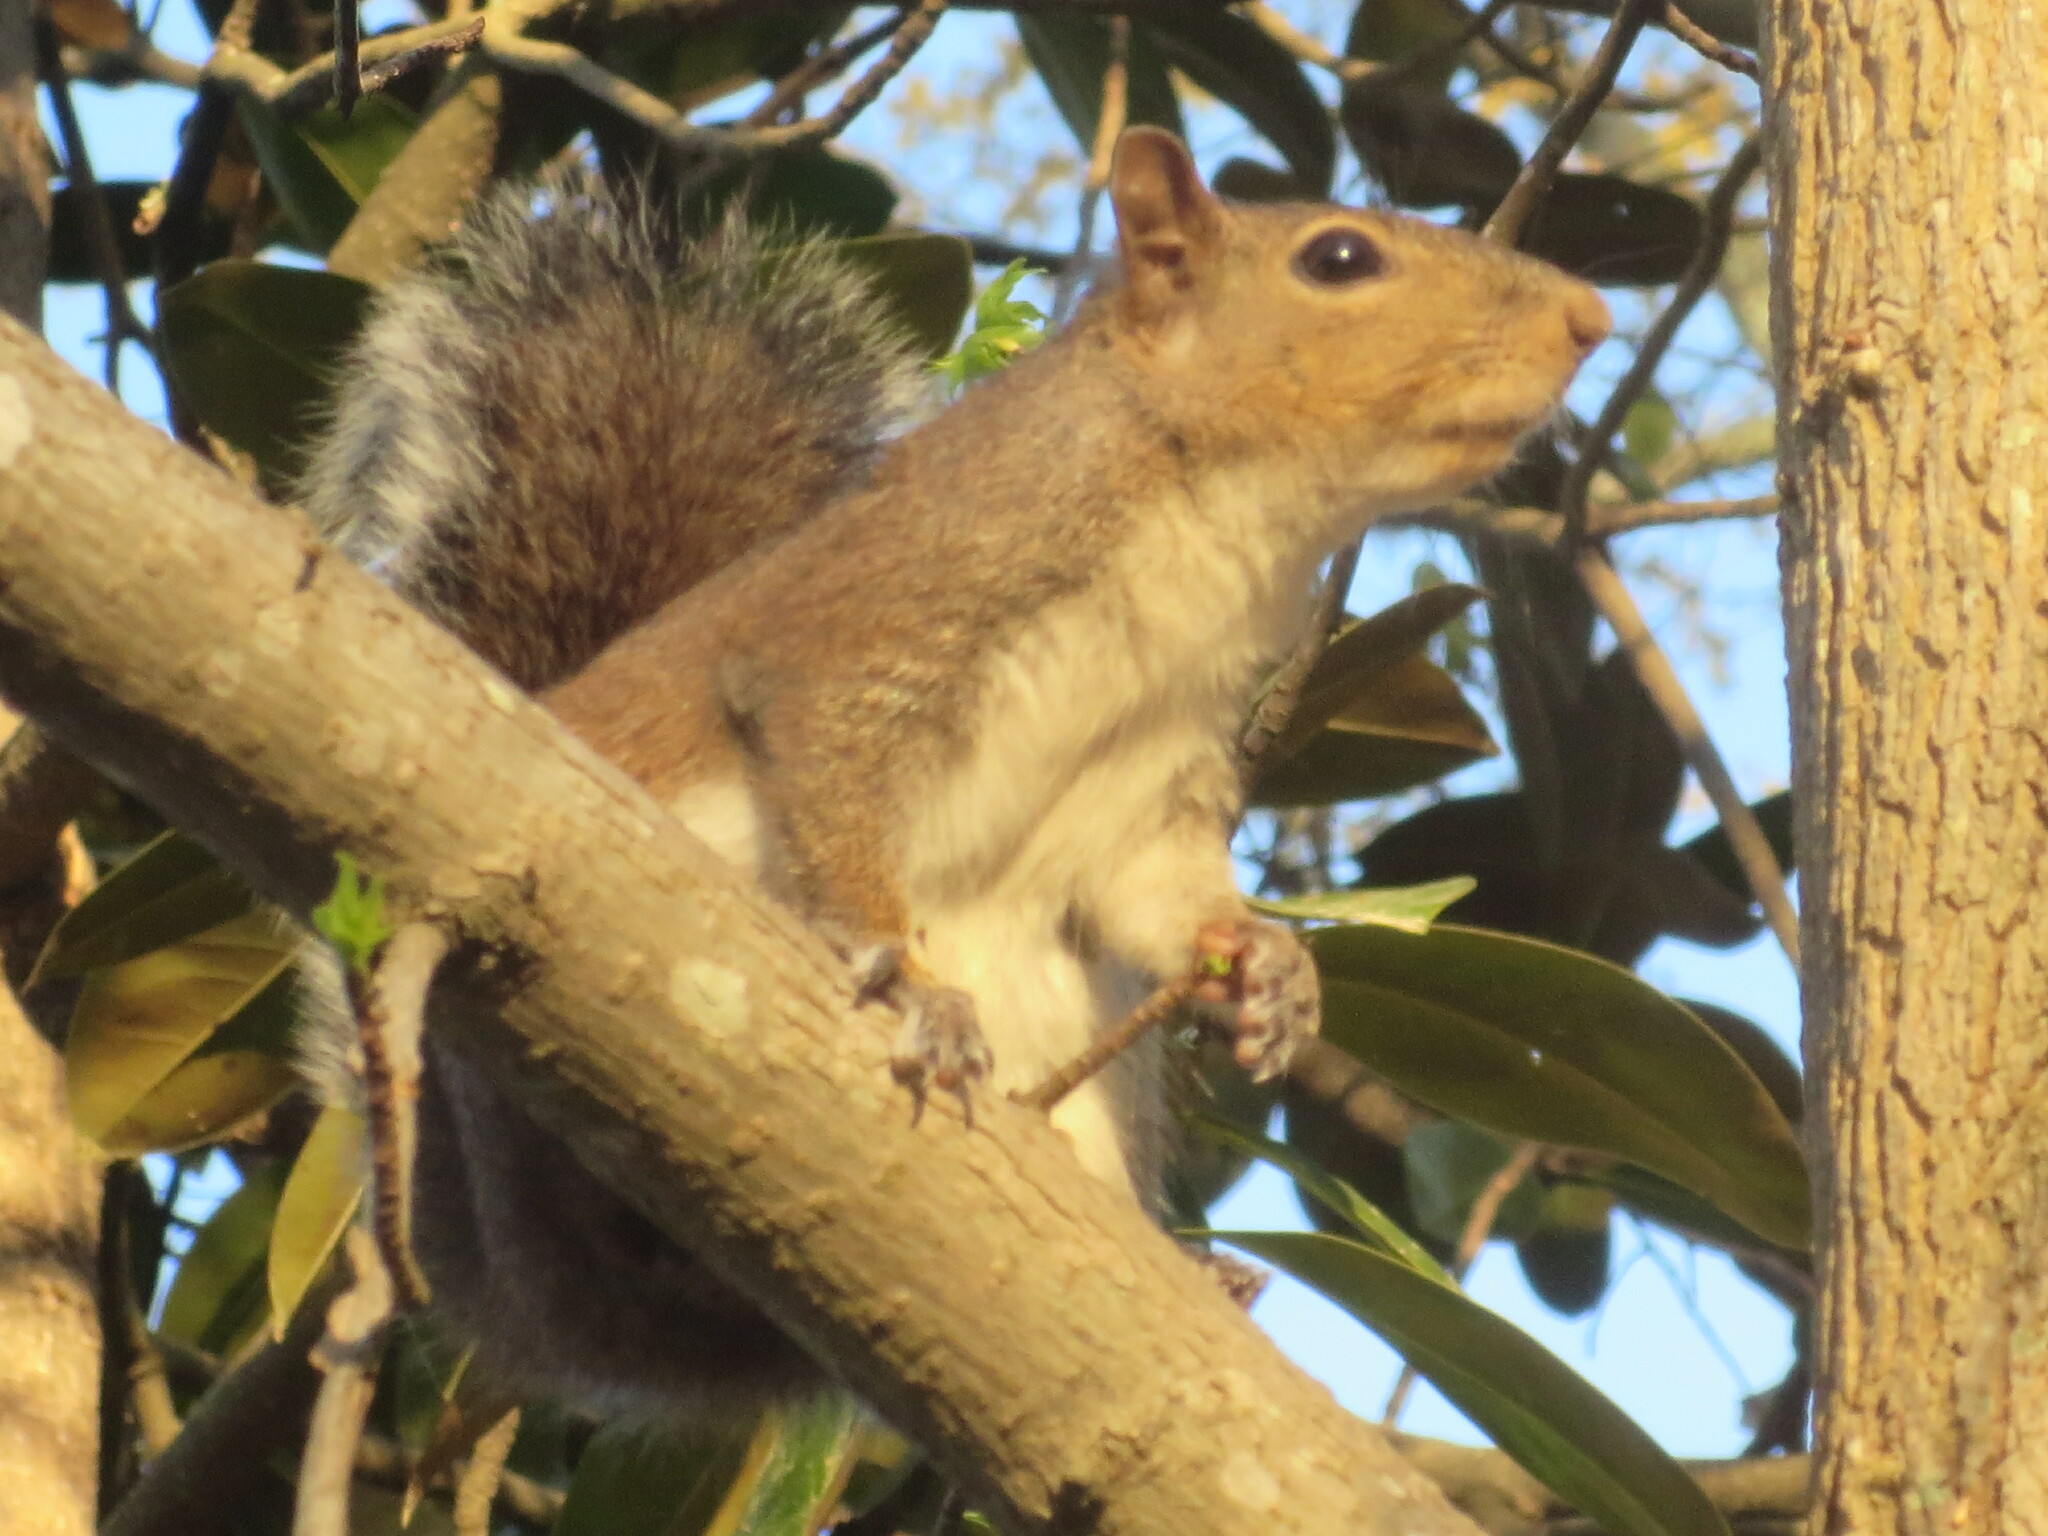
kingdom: Animalia
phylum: Chordata
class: Mammalia
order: Rodentia
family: Sciuridae
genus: Sciurus
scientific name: Sciurus carolinensis
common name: Eastern gray squirrel
